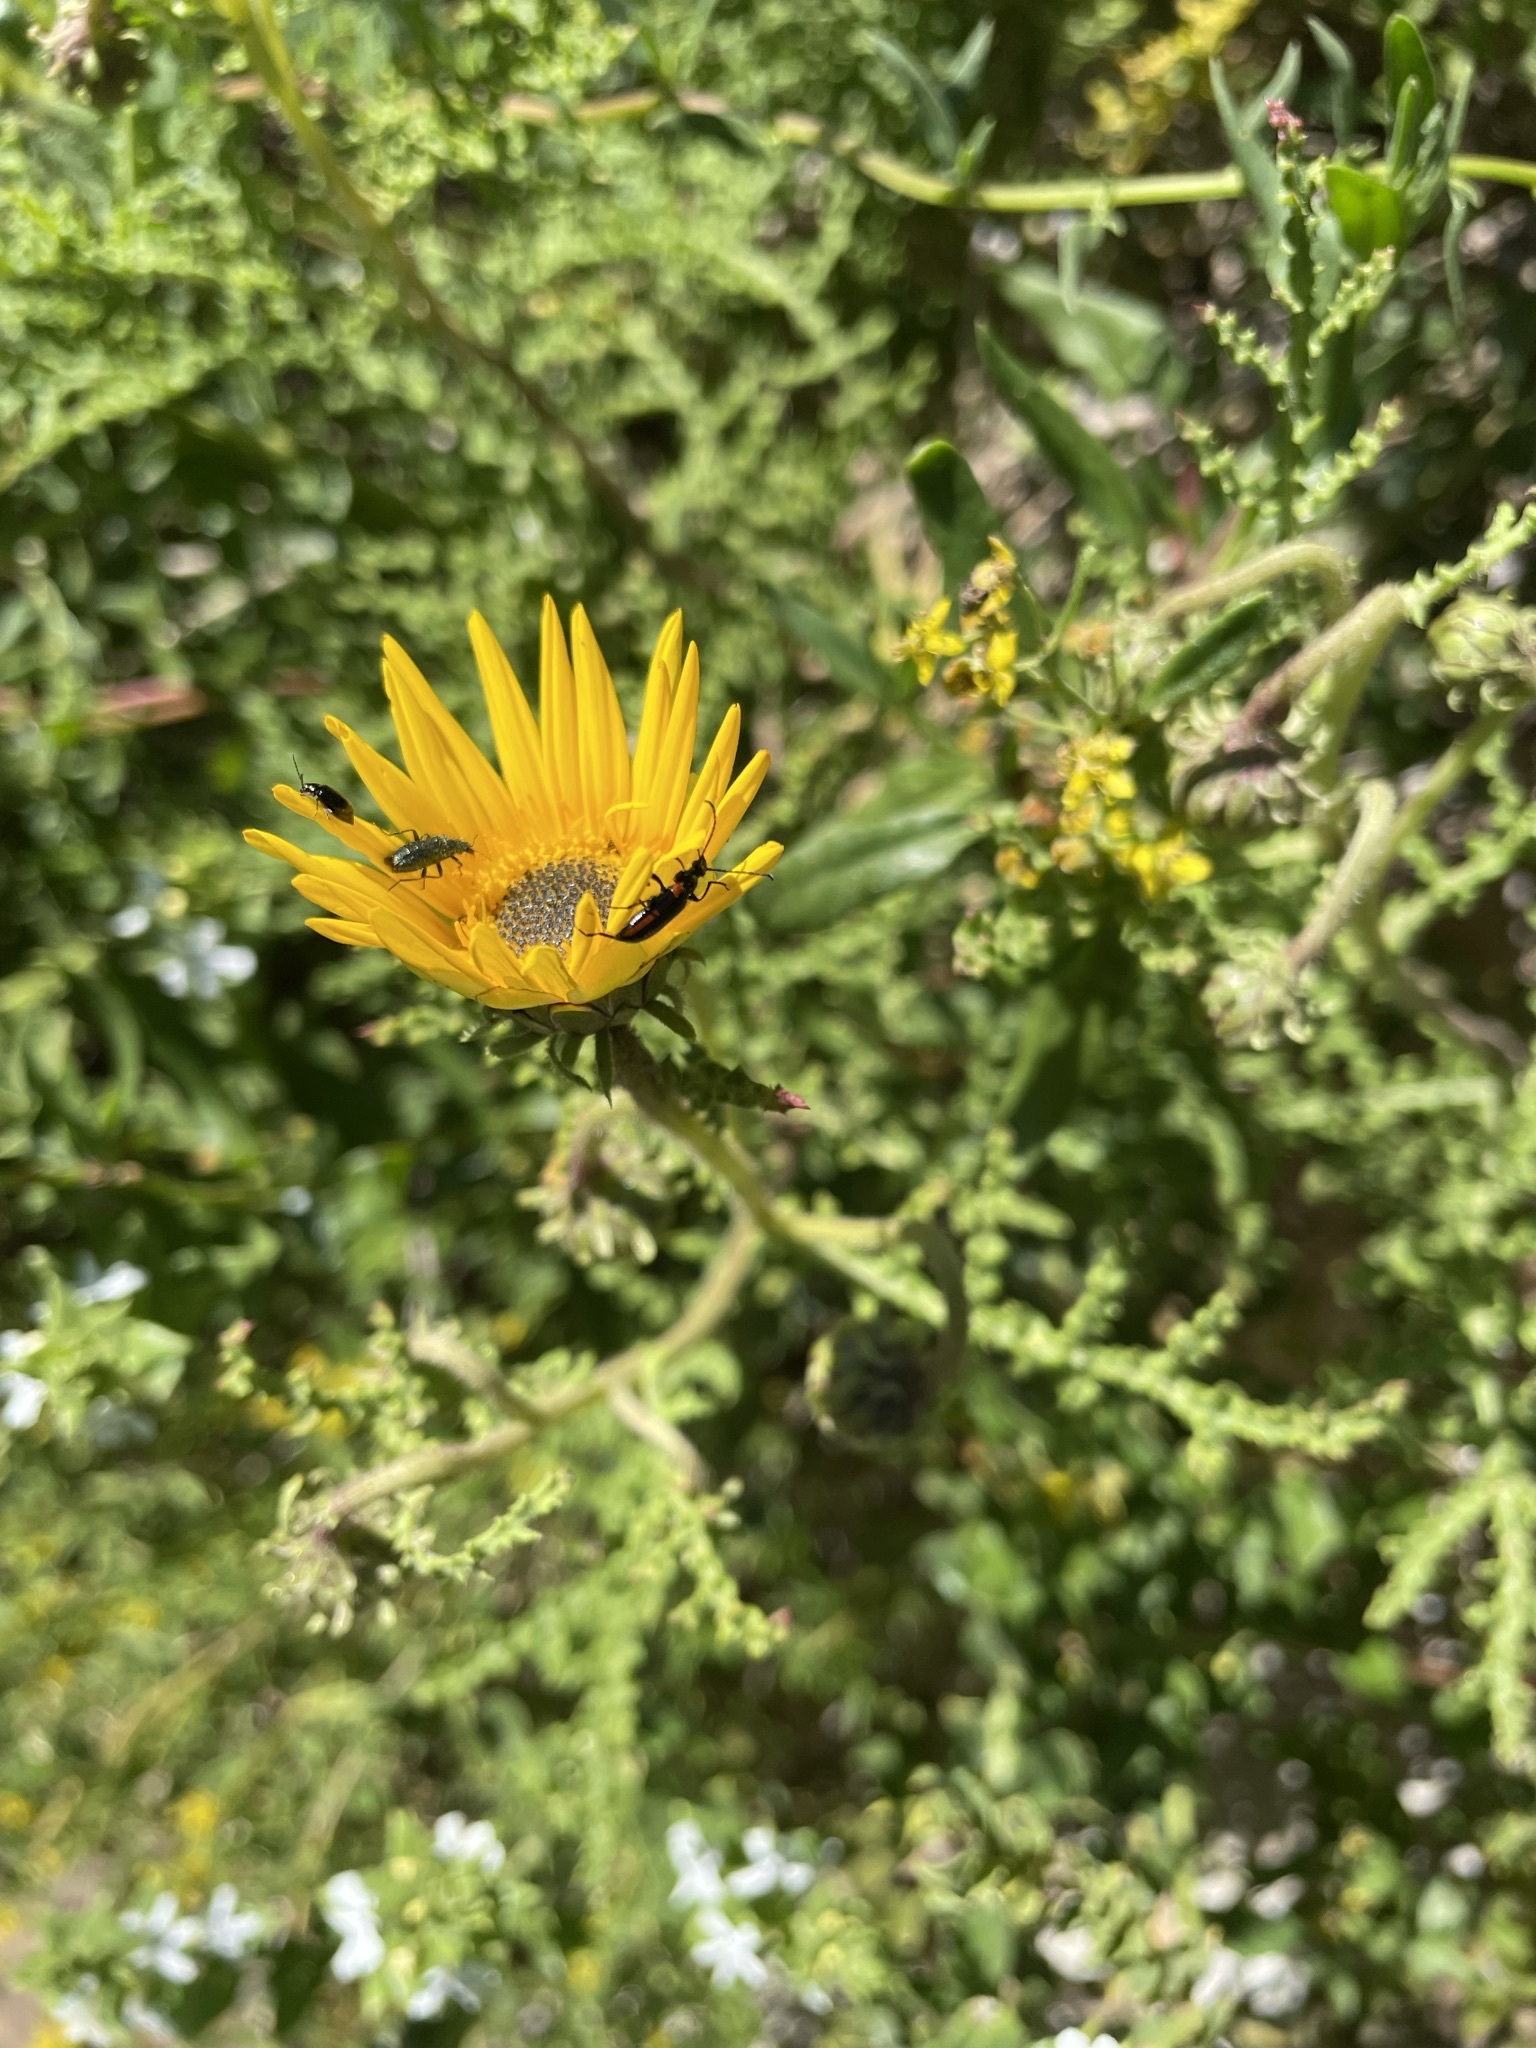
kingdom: Plantae
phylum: Tracheophyta
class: Magnoliopsida
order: Asterales
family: Asteraceae
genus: Arctotis
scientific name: Arctotis laciniata
